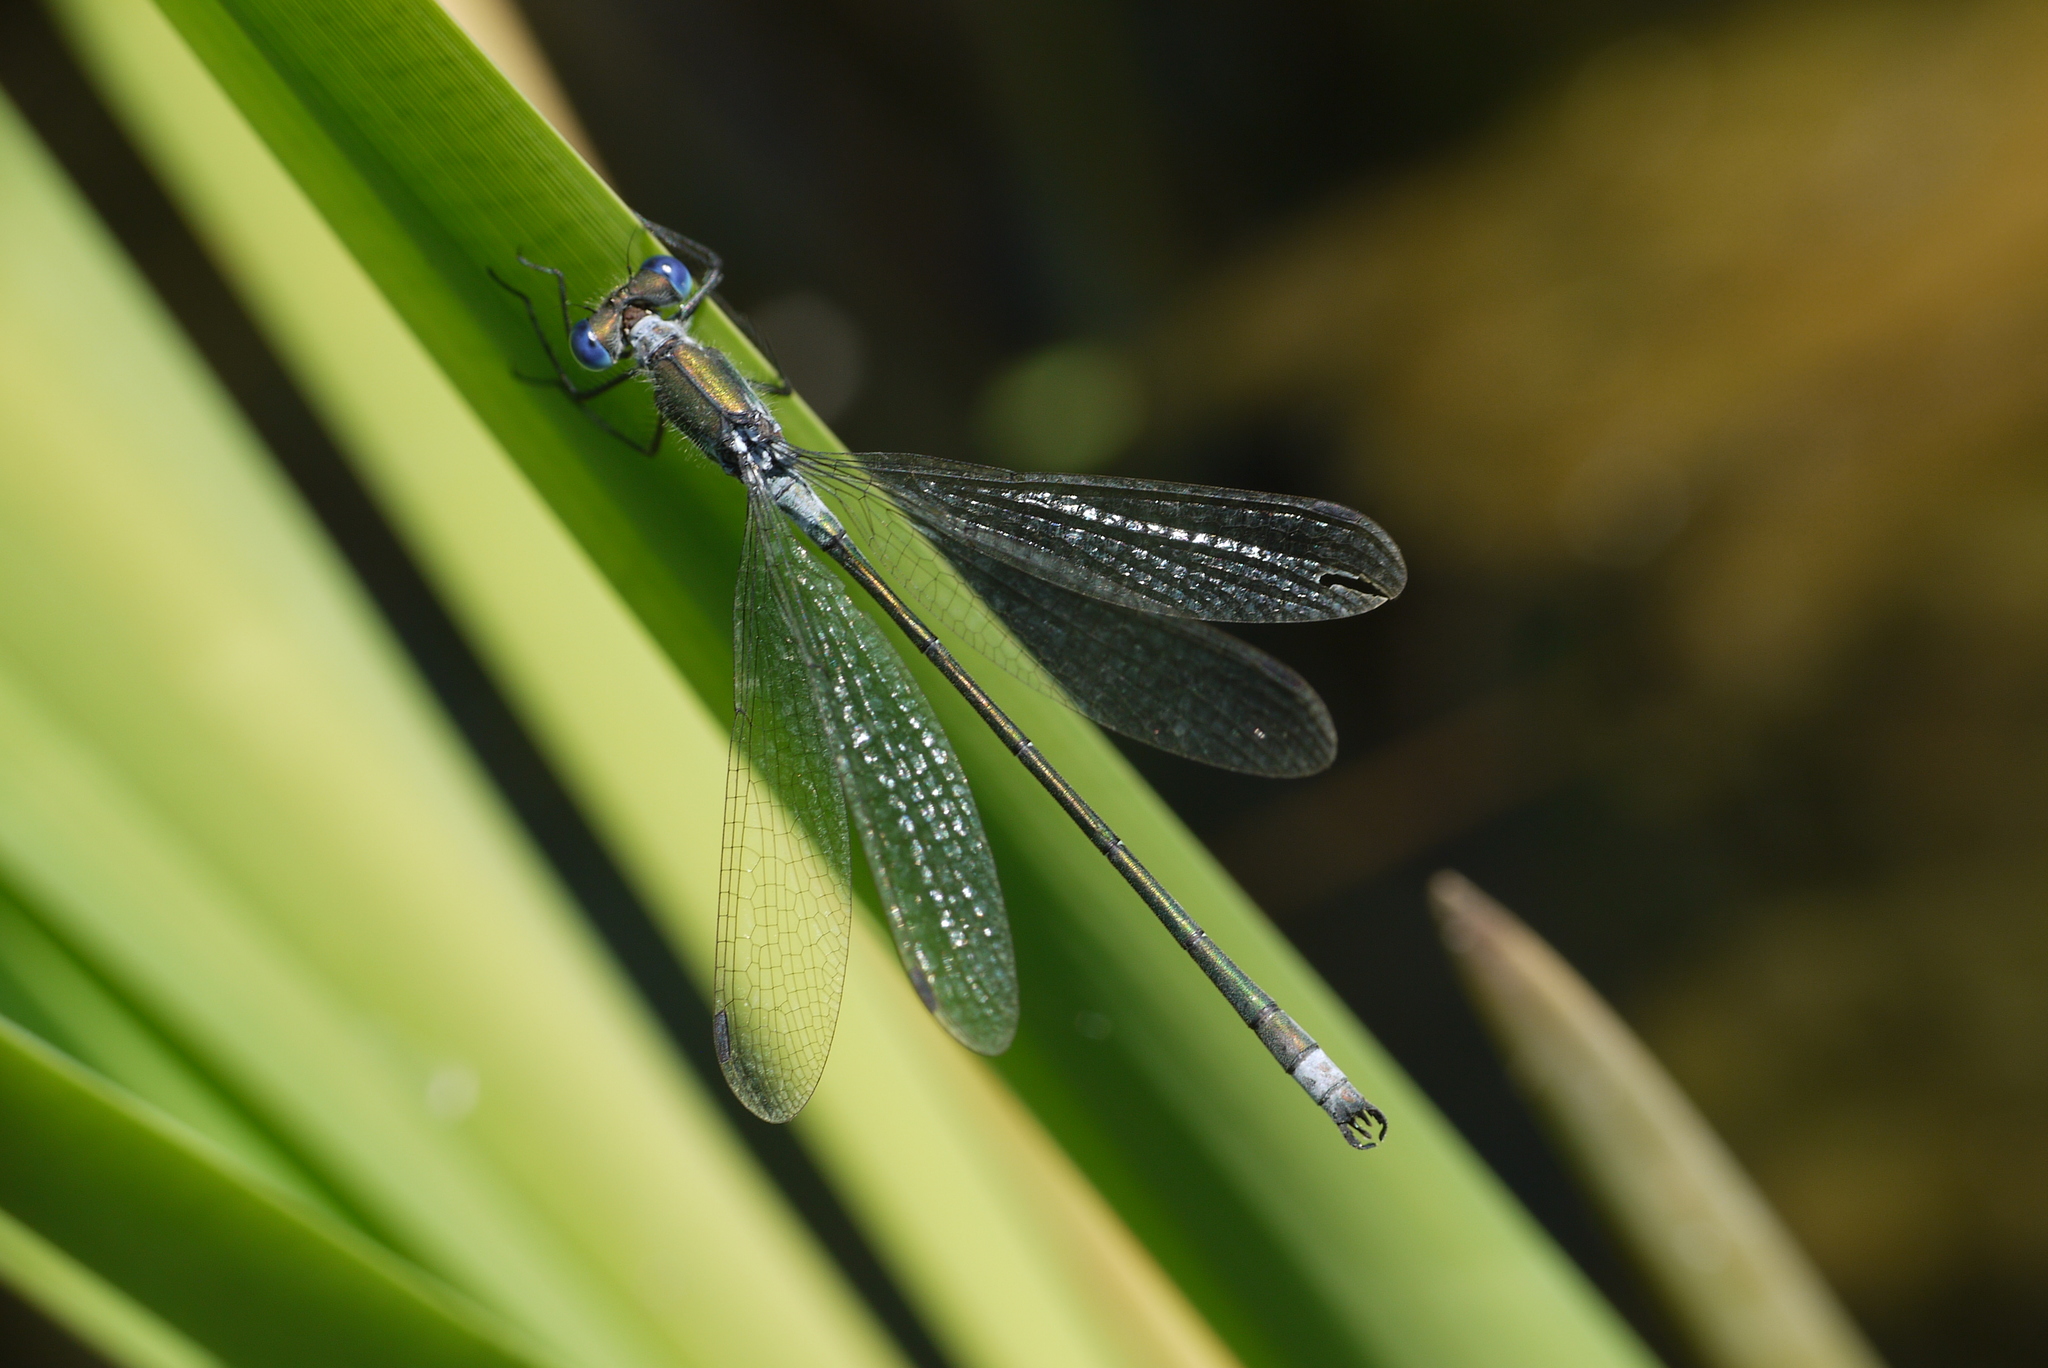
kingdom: Animalia
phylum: Arthropoda
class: Insecta
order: Odonata
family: Lestidae
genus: Lestes
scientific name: Lestes sponsa
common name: Common spreadwing
